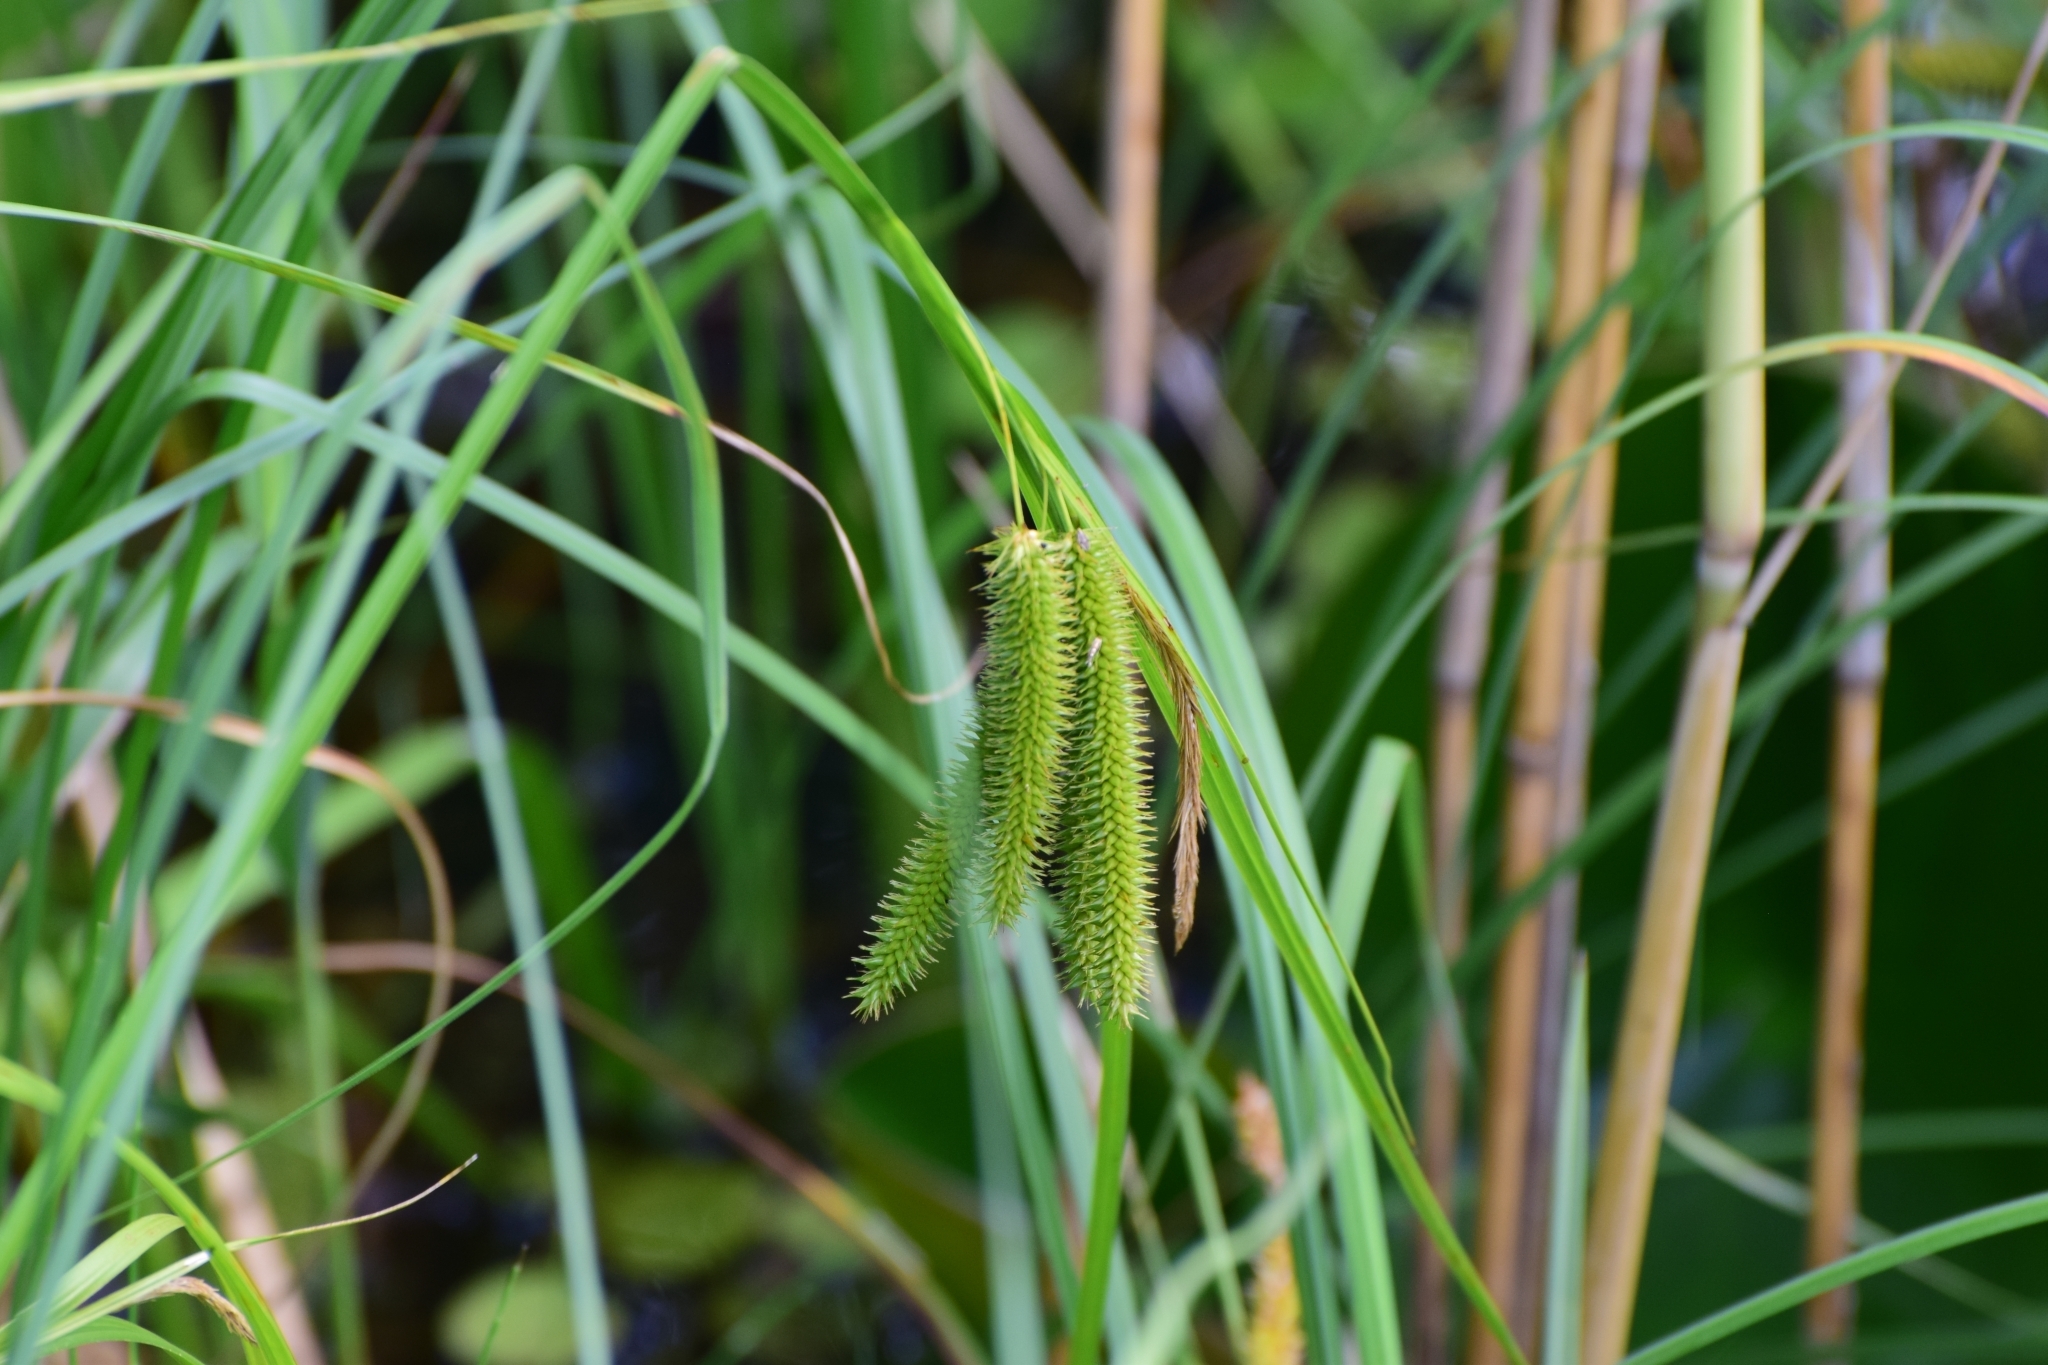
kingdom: Plantae
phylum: Tracheophyta
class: Liliopsida
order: Poales
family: Cyperaceae
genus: Carex
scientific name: Carex pseudocyperus
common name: Cyperus sedge
